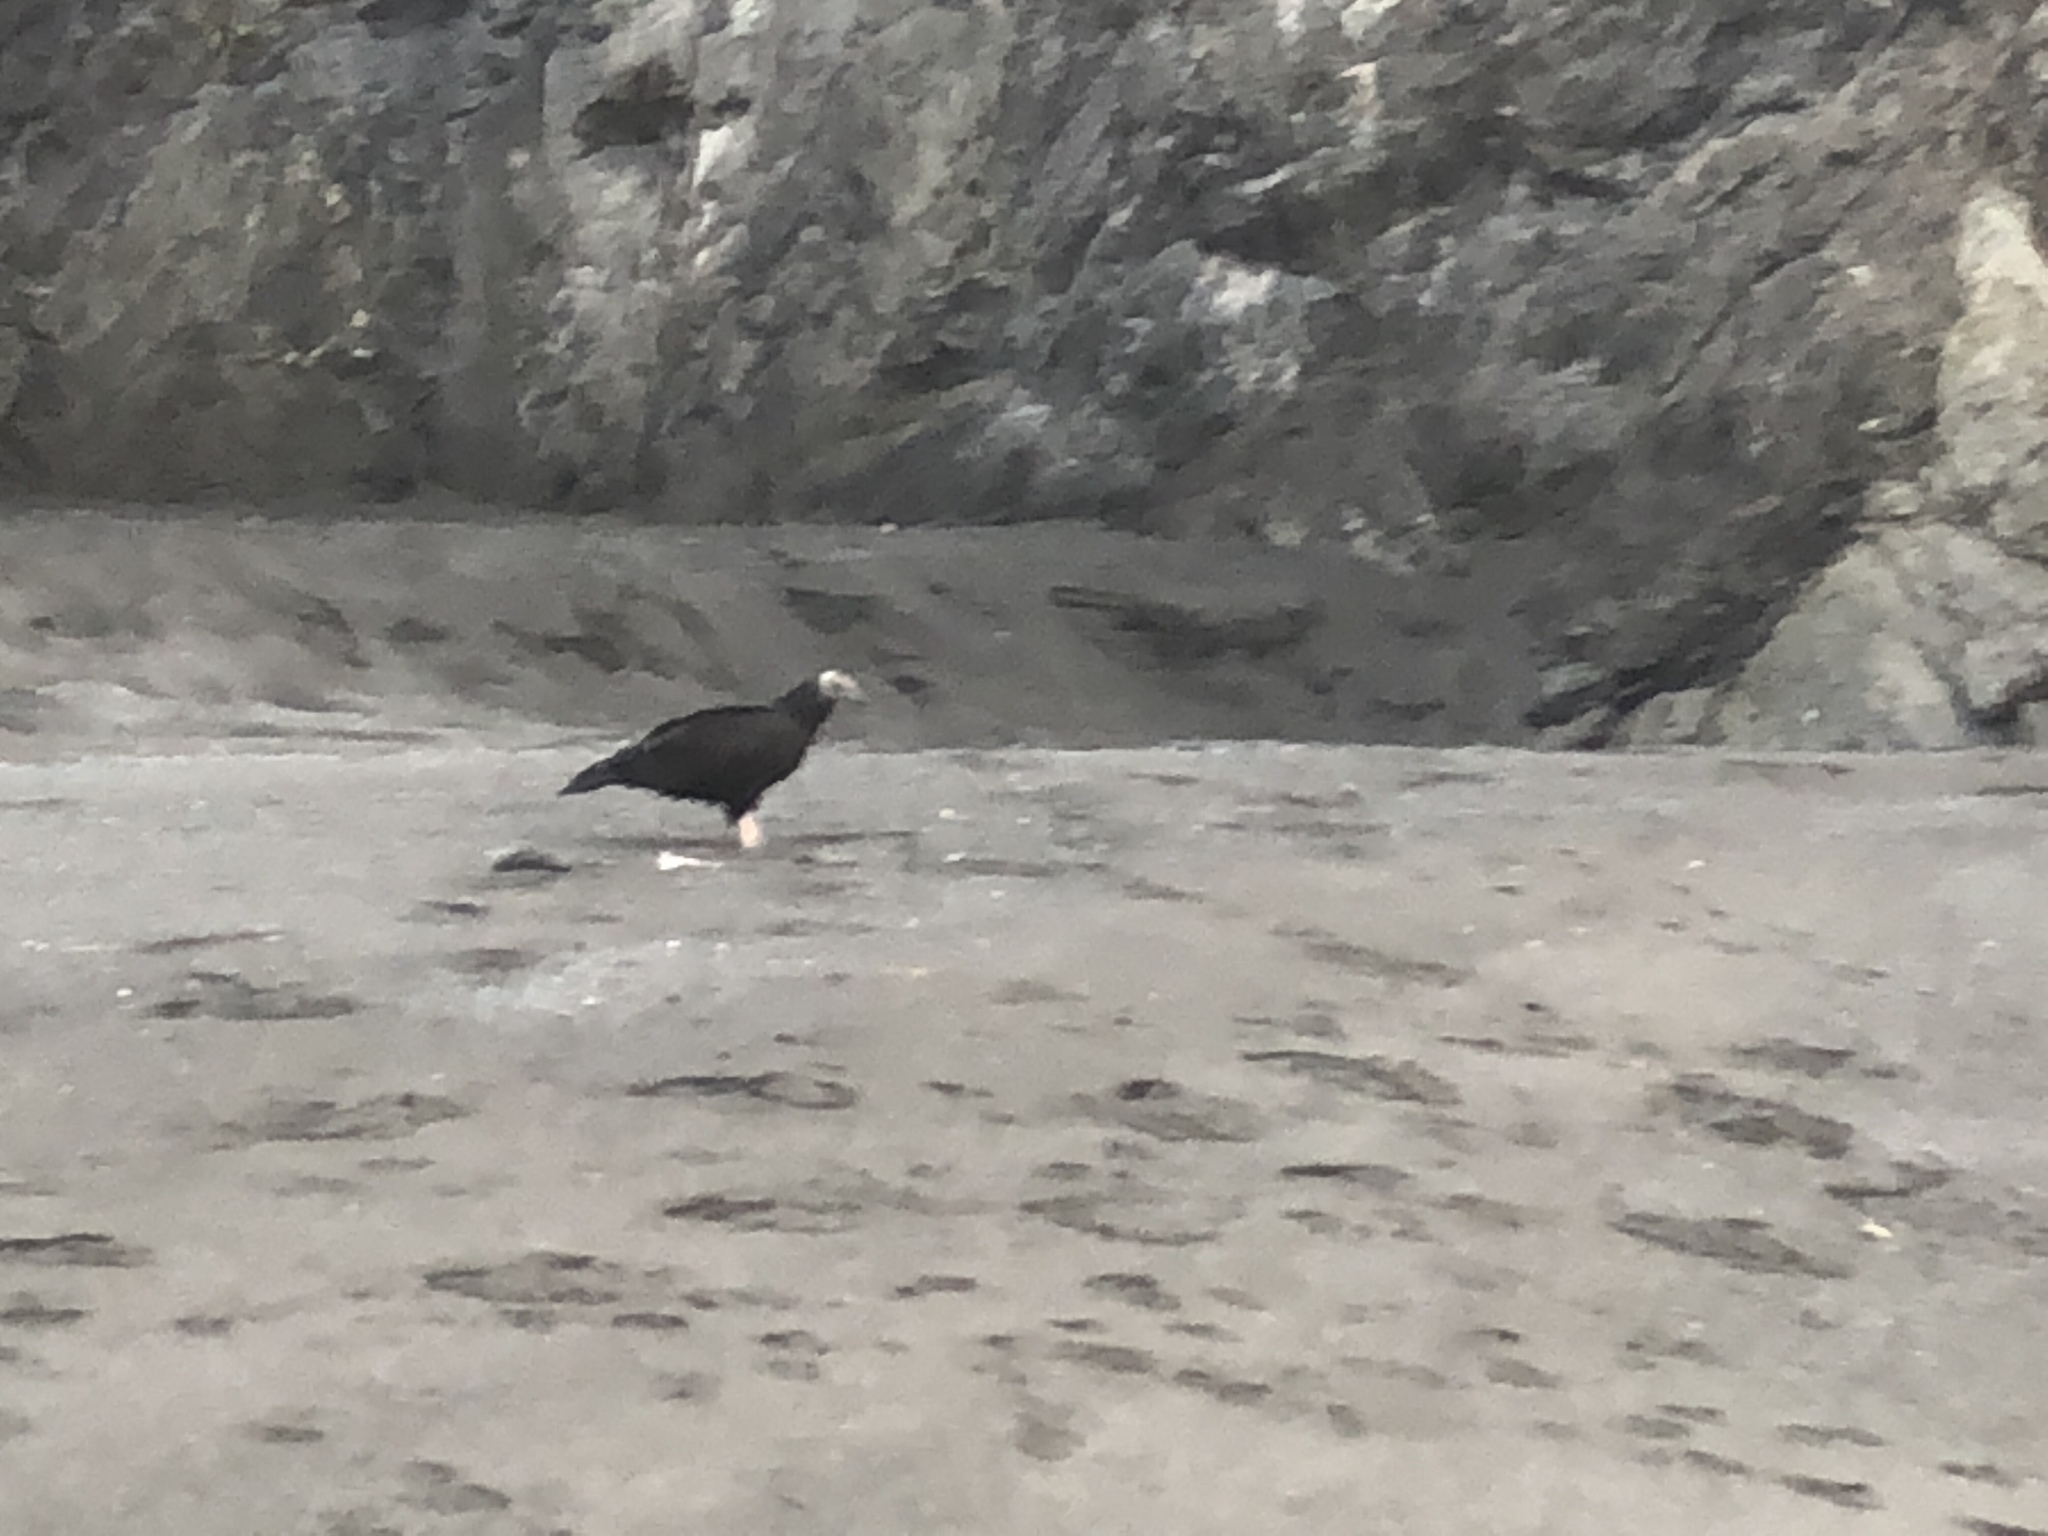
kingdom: Animalia
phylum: Chordata
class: Aves
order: Accipitriformes
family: Cathartidae
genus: Cathartes
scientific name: Cathartes aura
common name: Turkey vulture
